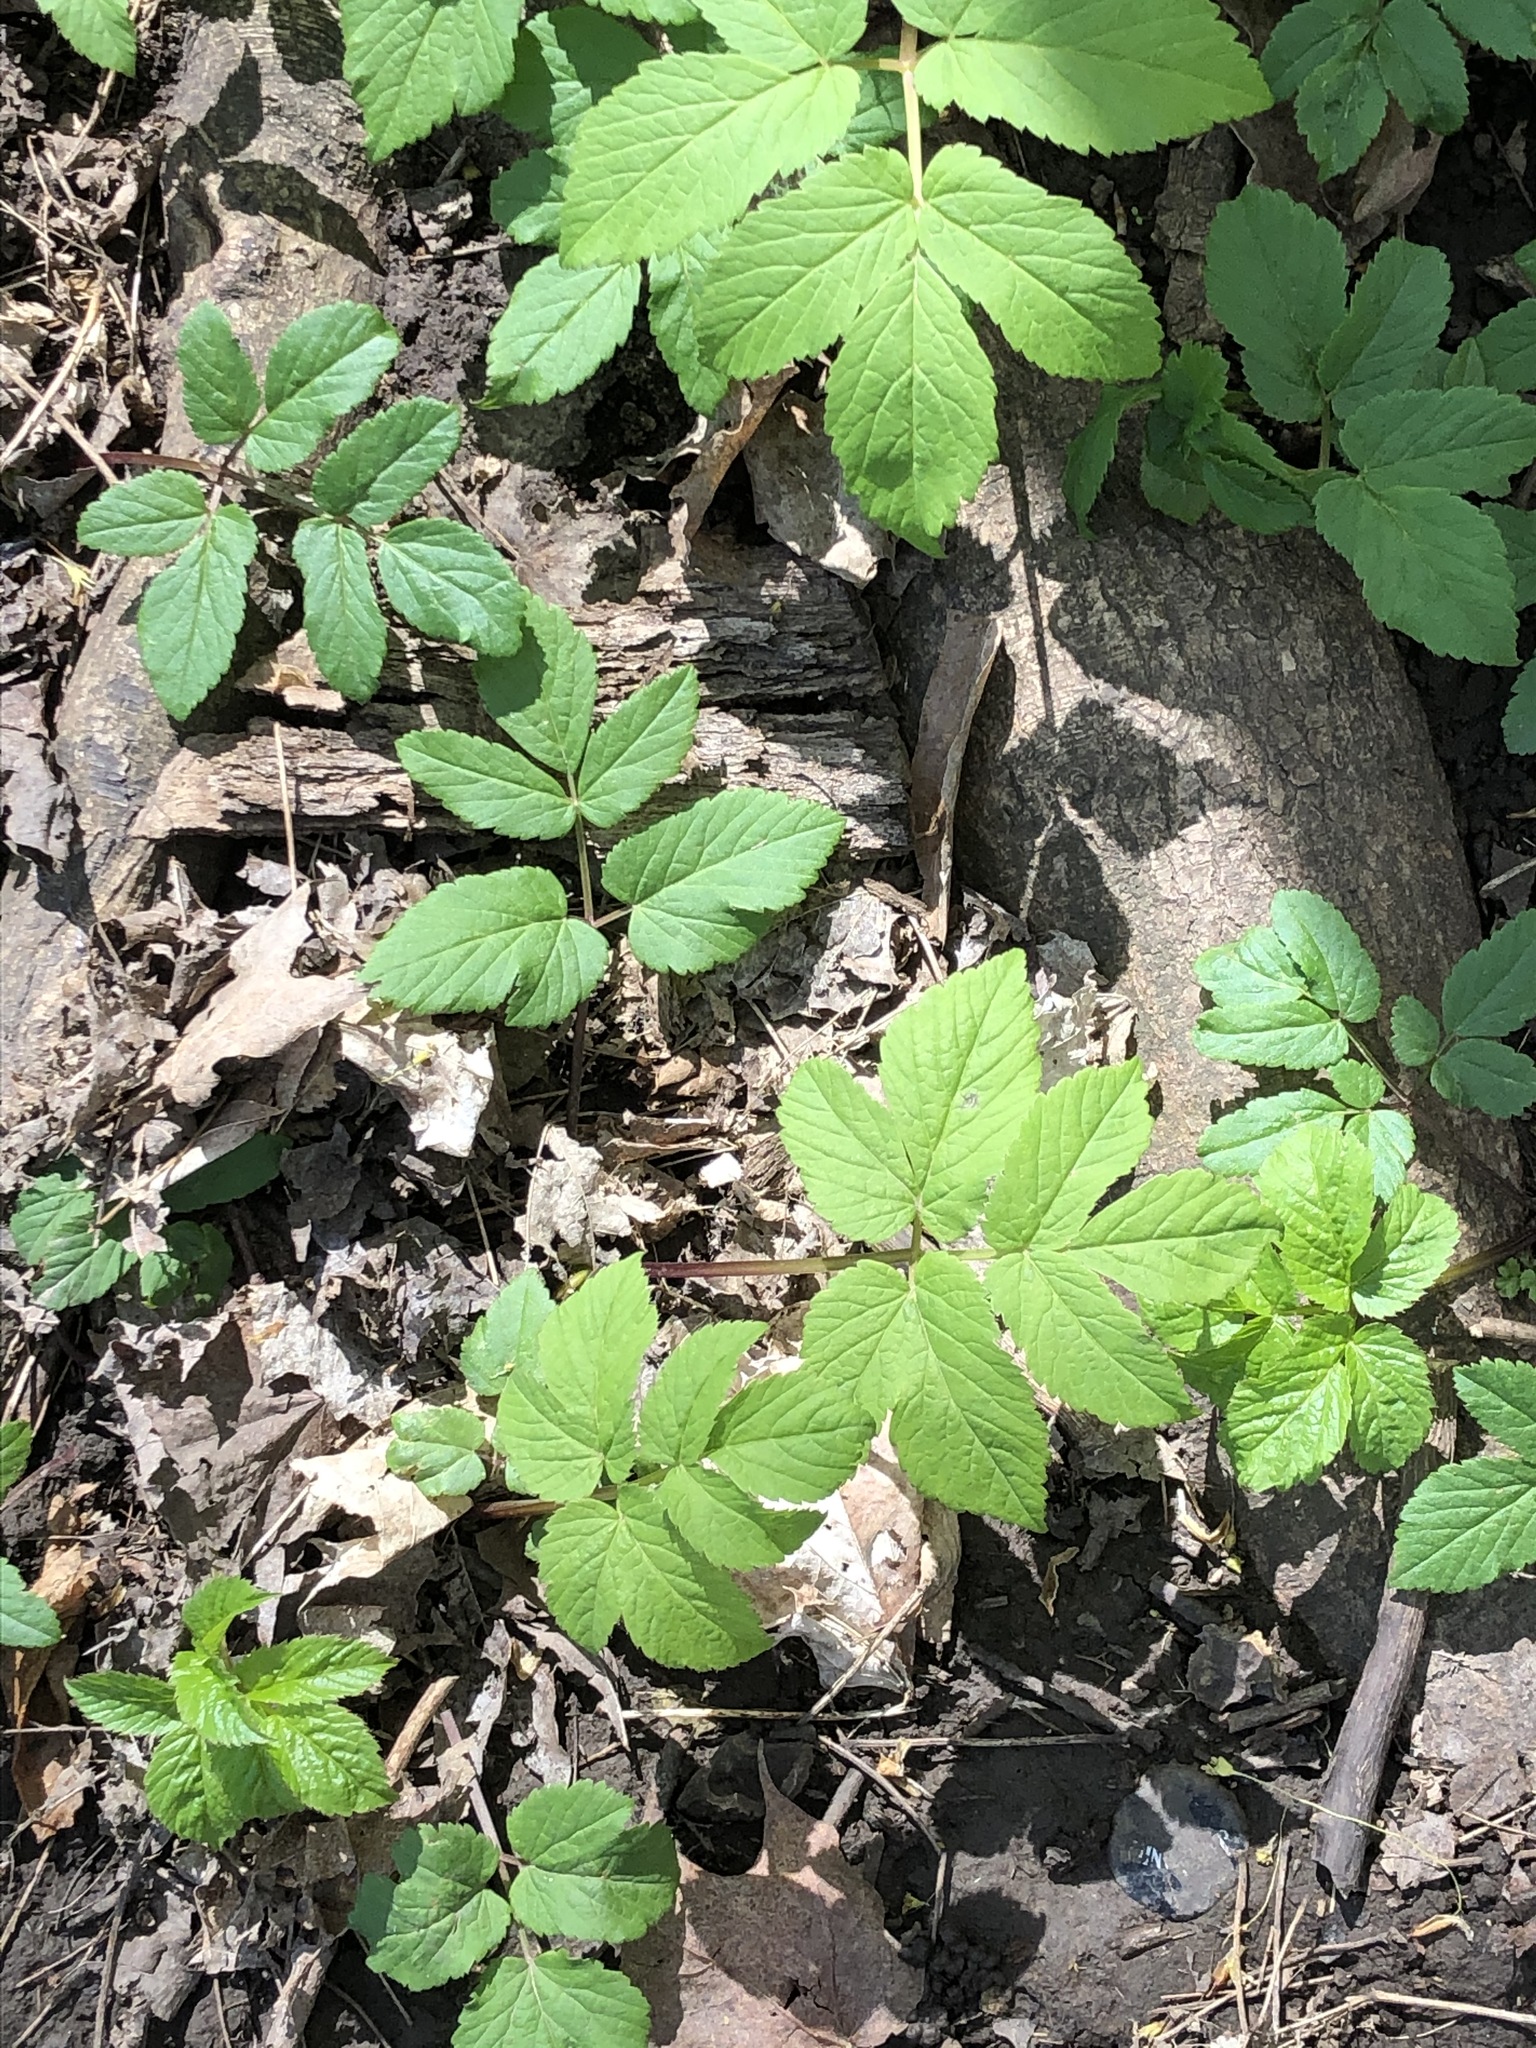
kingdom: Plantae
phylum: Tracheophyta
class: Magnoliopsida
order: Apiales
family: Apiaceae
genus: Aegopodium
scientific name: Aegopodium podagraria
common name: Ground-elder
